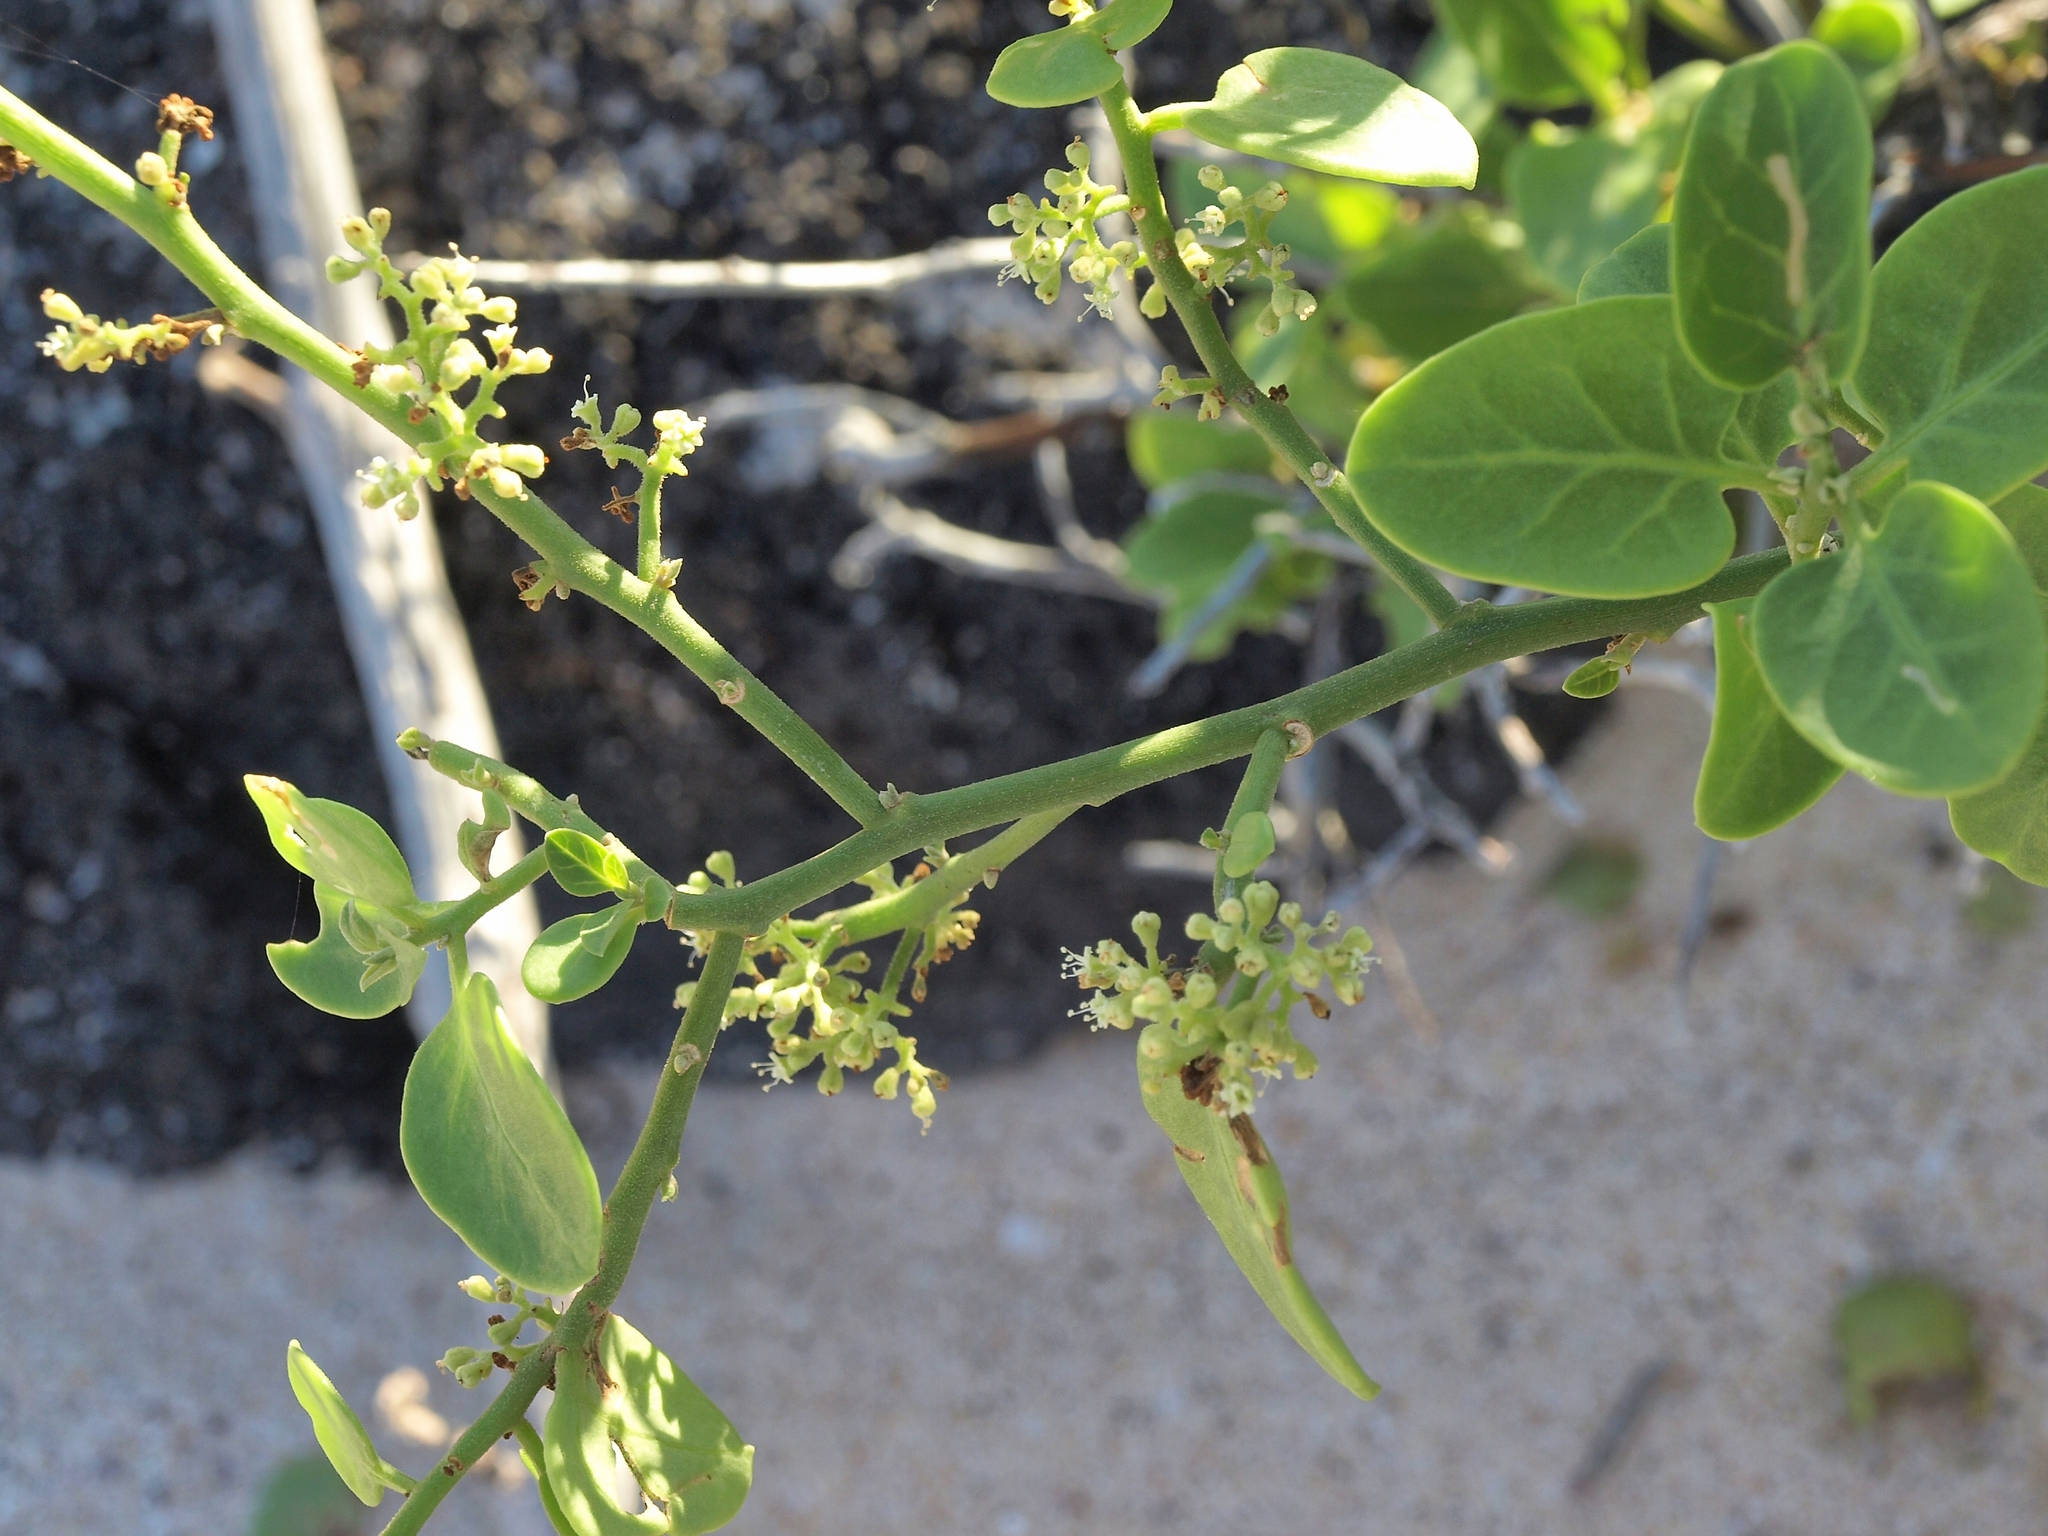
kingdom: Plantae
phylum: Tracheophyta
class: Magnoliopsida
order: Caryophyllales
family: Nyctaginaceae
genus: Cryptocarpus
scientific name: Cryptocarpus pyriformis
